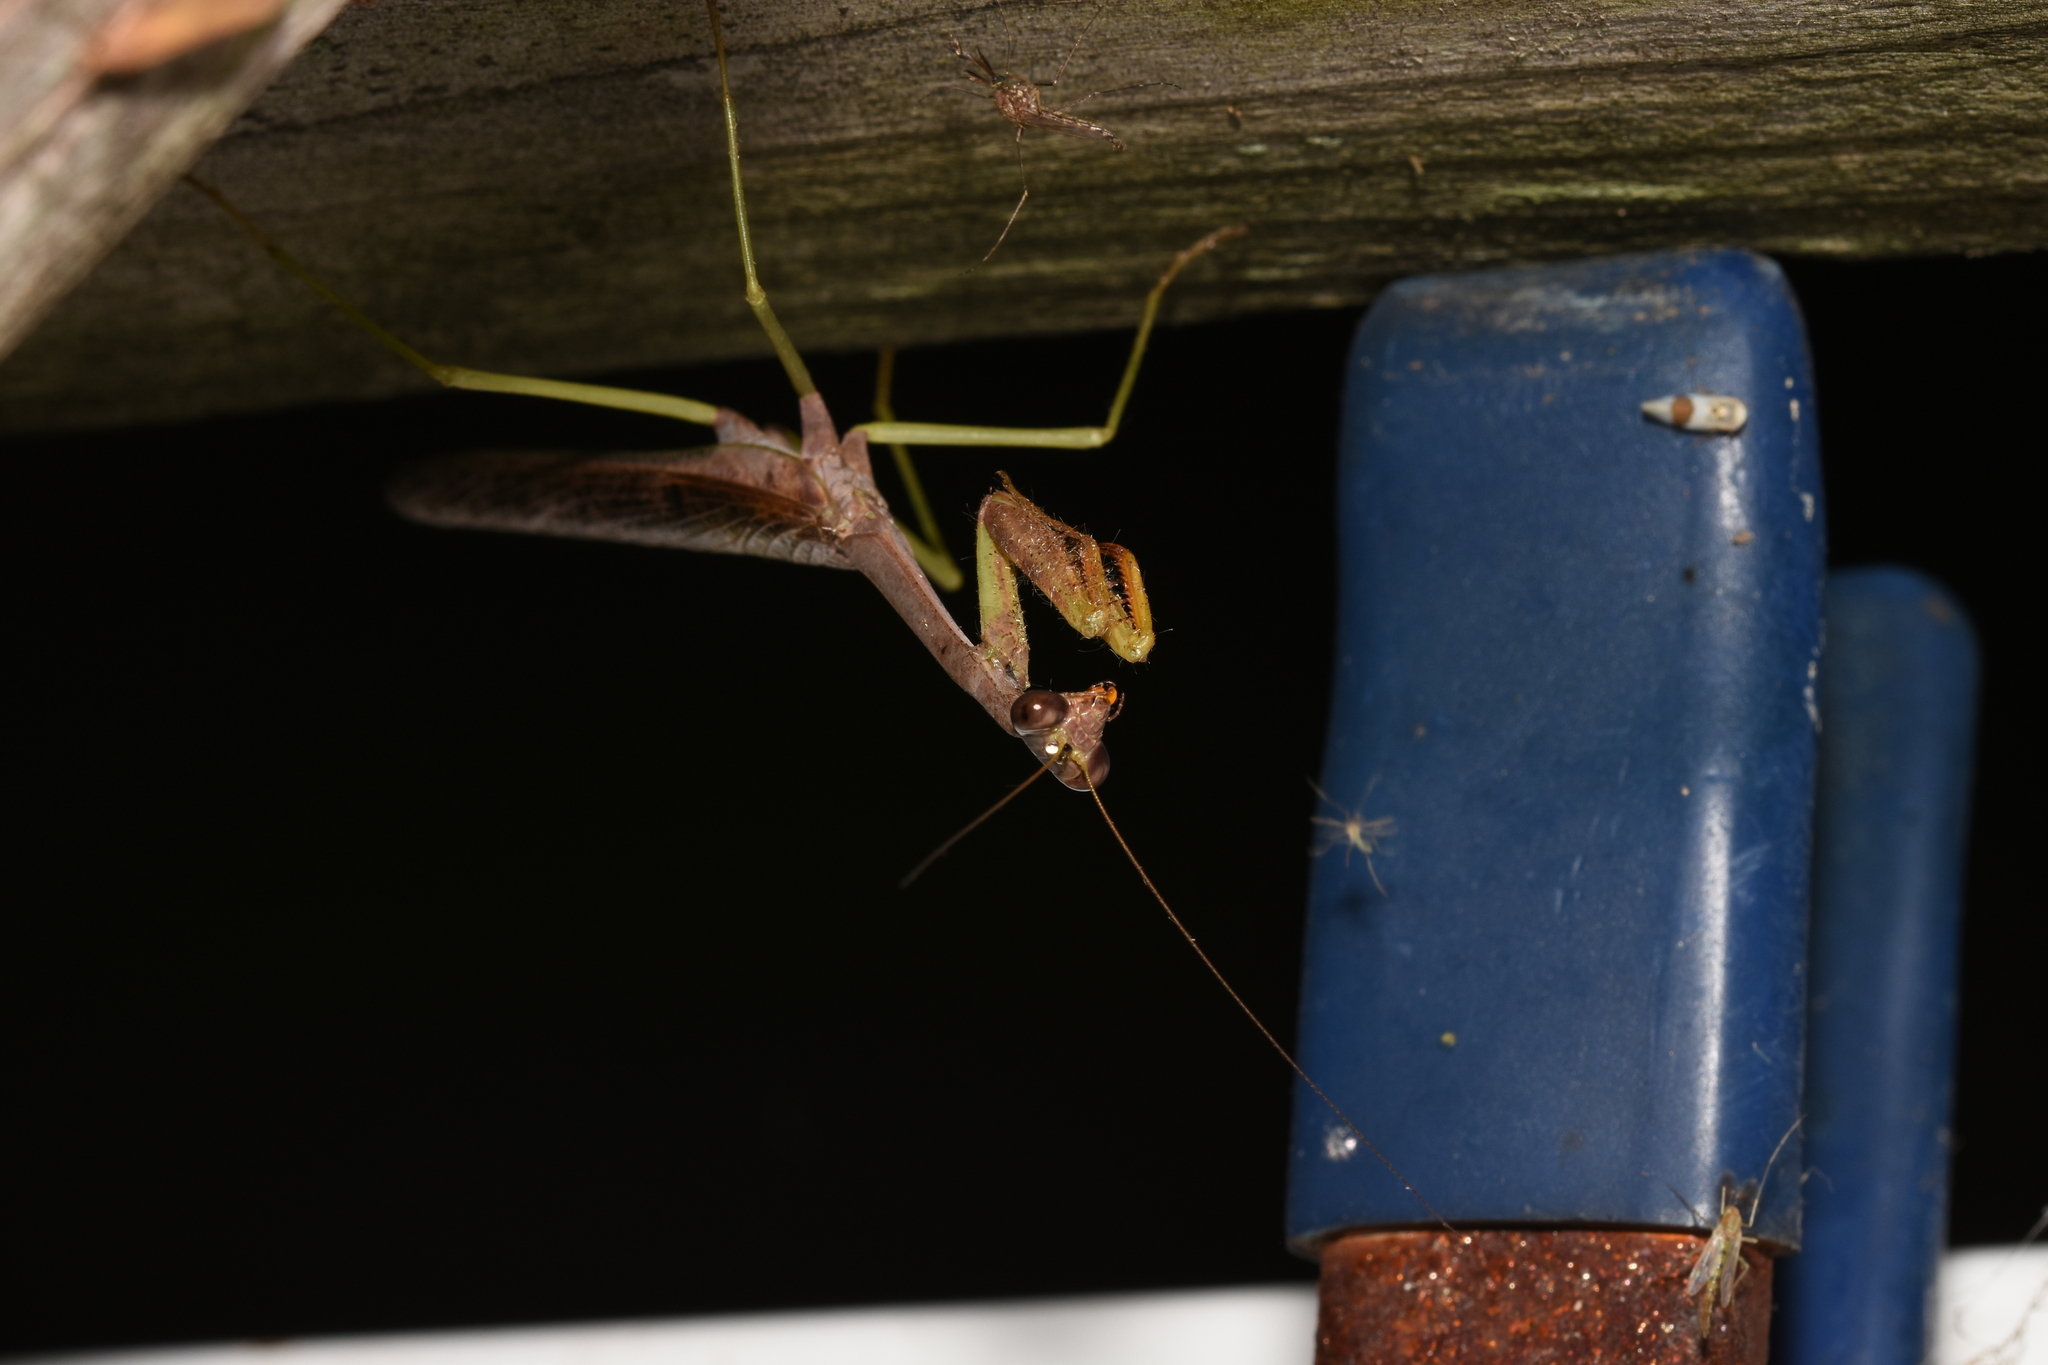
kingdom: Animalia
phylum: Arthropoda
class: Insecta
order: Mantodea
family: Mantidae
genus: Stagmomantis
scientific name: Stagmomantis carolina
